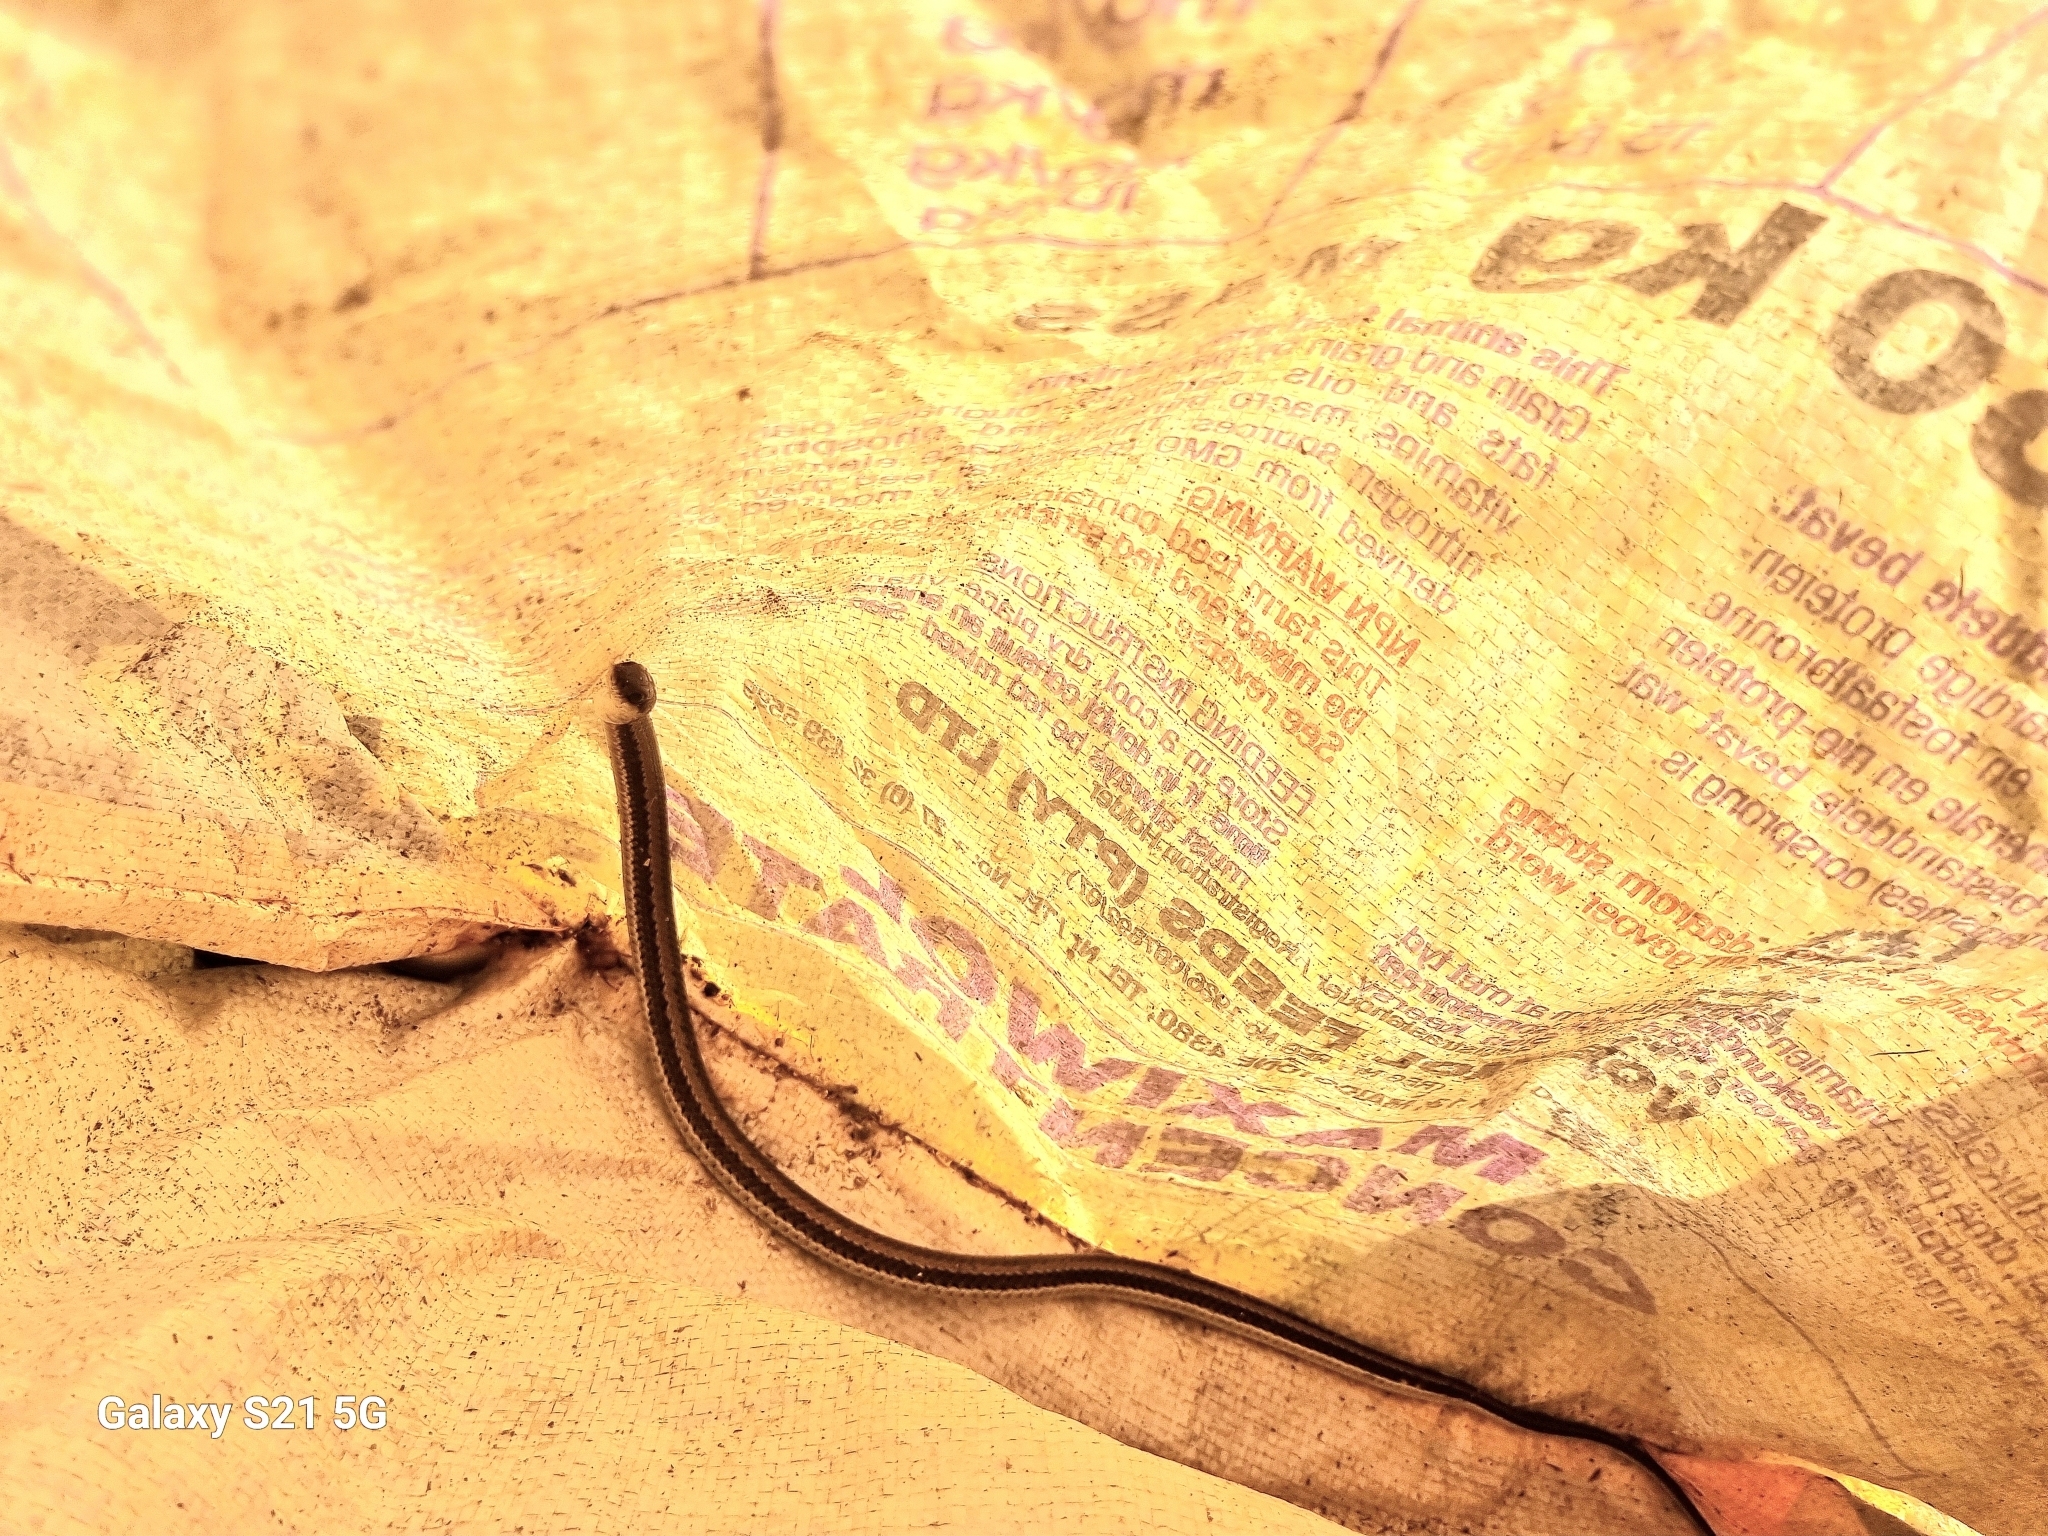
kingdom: Animalia
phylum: Chordata
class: Squamata
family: Psammophiidae
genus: Psammophylax
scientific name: Psammophylax rhombeatus
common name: Rhombic skaapsteker
